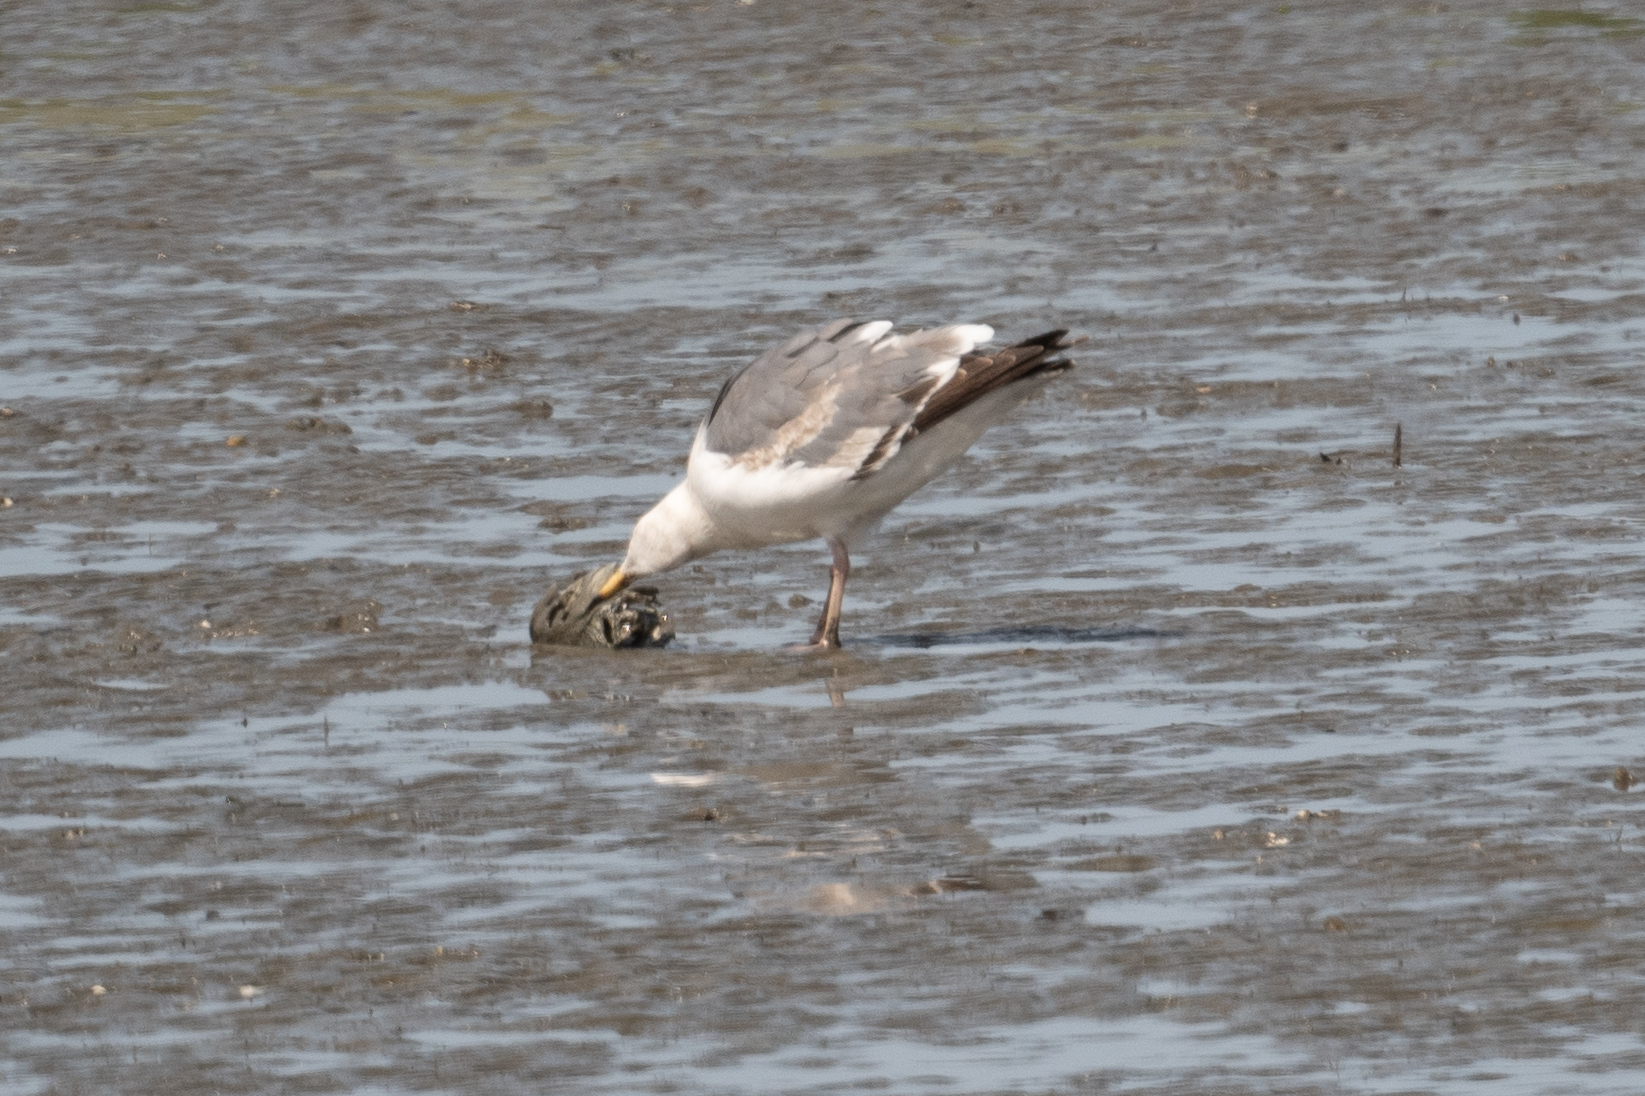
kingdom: Animalia
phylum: Chordata
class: Aves
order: Charadriiformes
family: Laridae
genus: Larus
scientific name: Larus occidentalis
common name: Western gull
